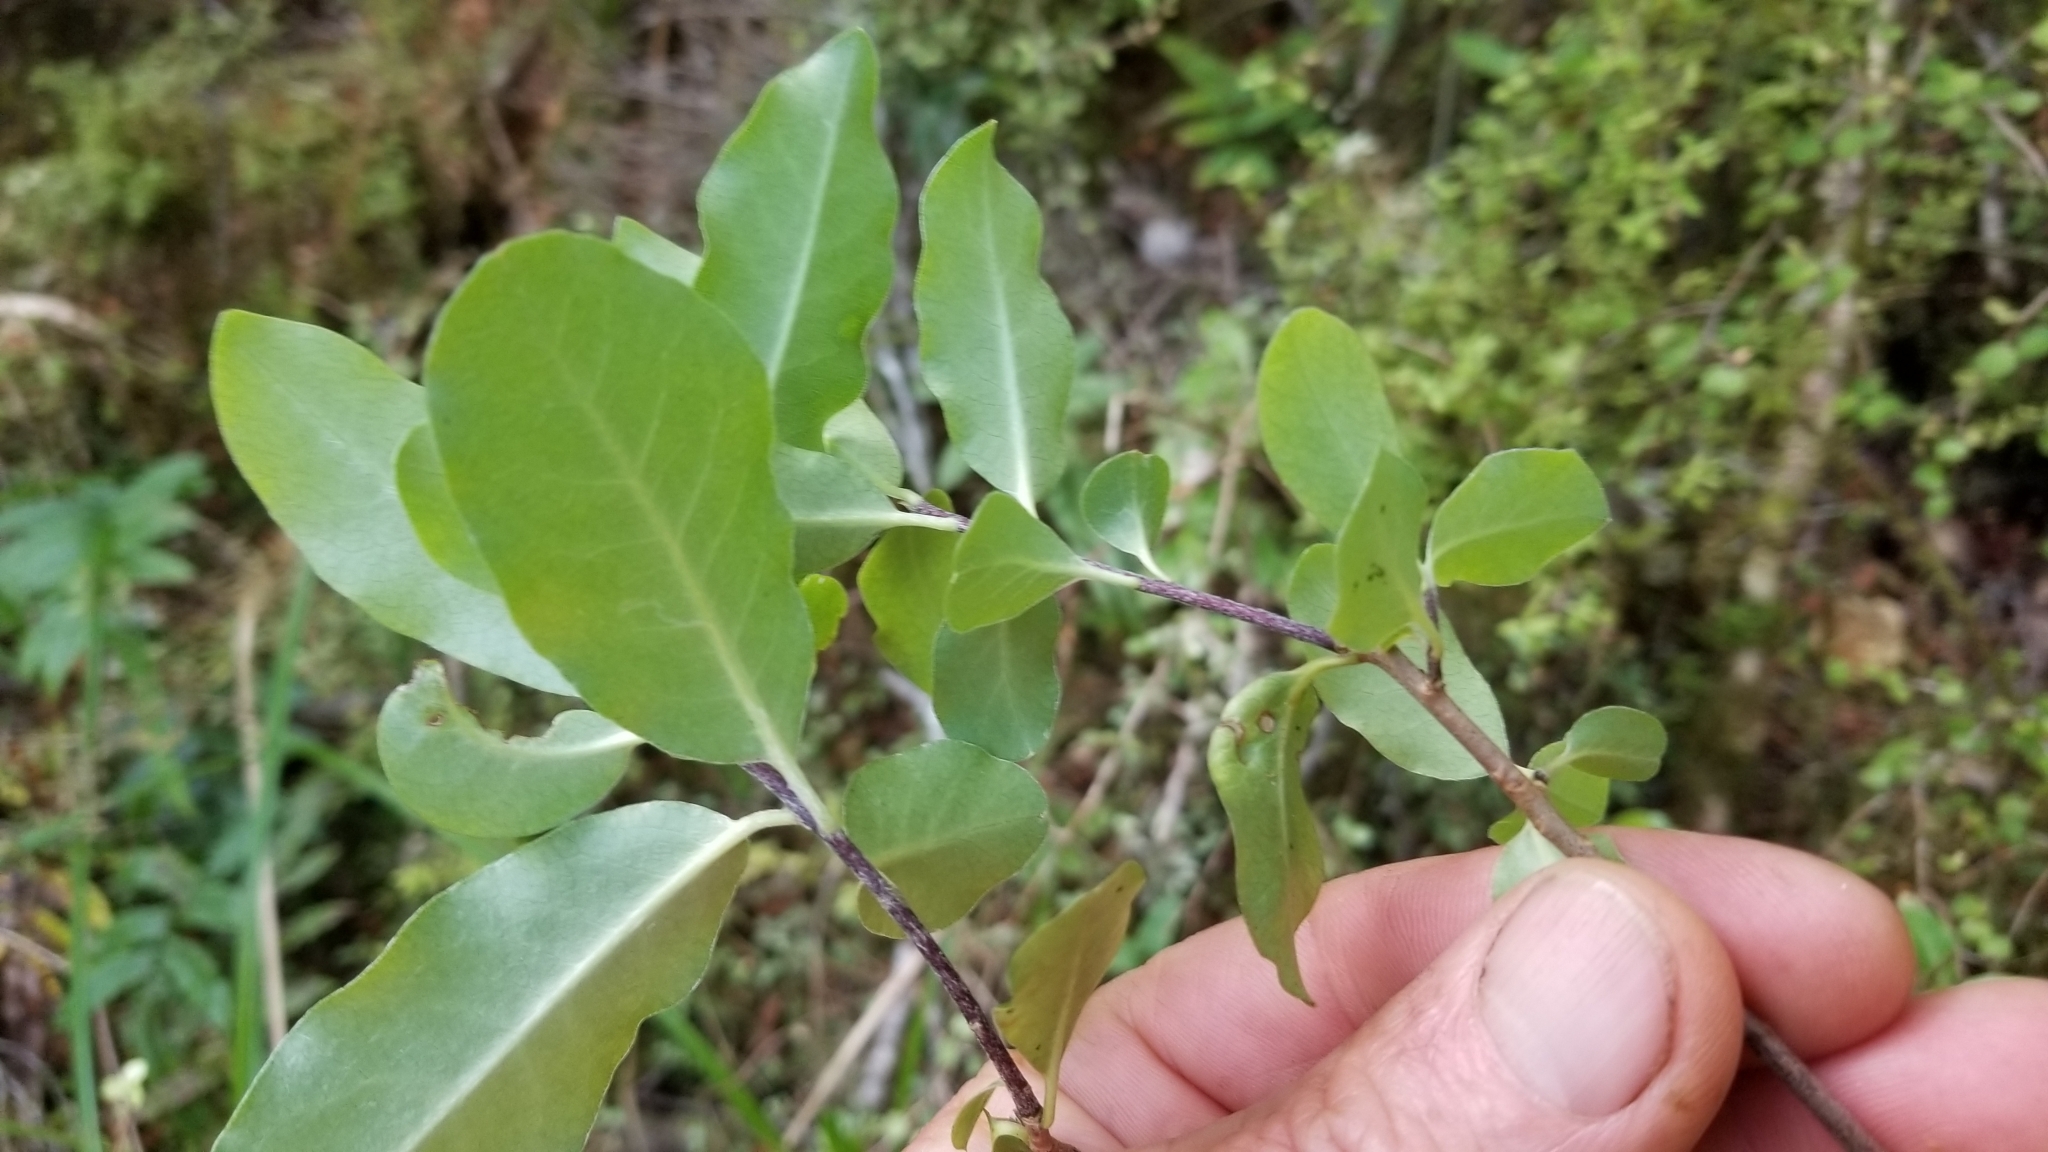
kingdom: Plantae
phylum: Tracheophyta
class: Magnoliopsida
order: Apiales
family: Pittosporaceae
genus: Pittosporum
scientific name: Pittosporum tenuifolium
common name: Kohuhu
